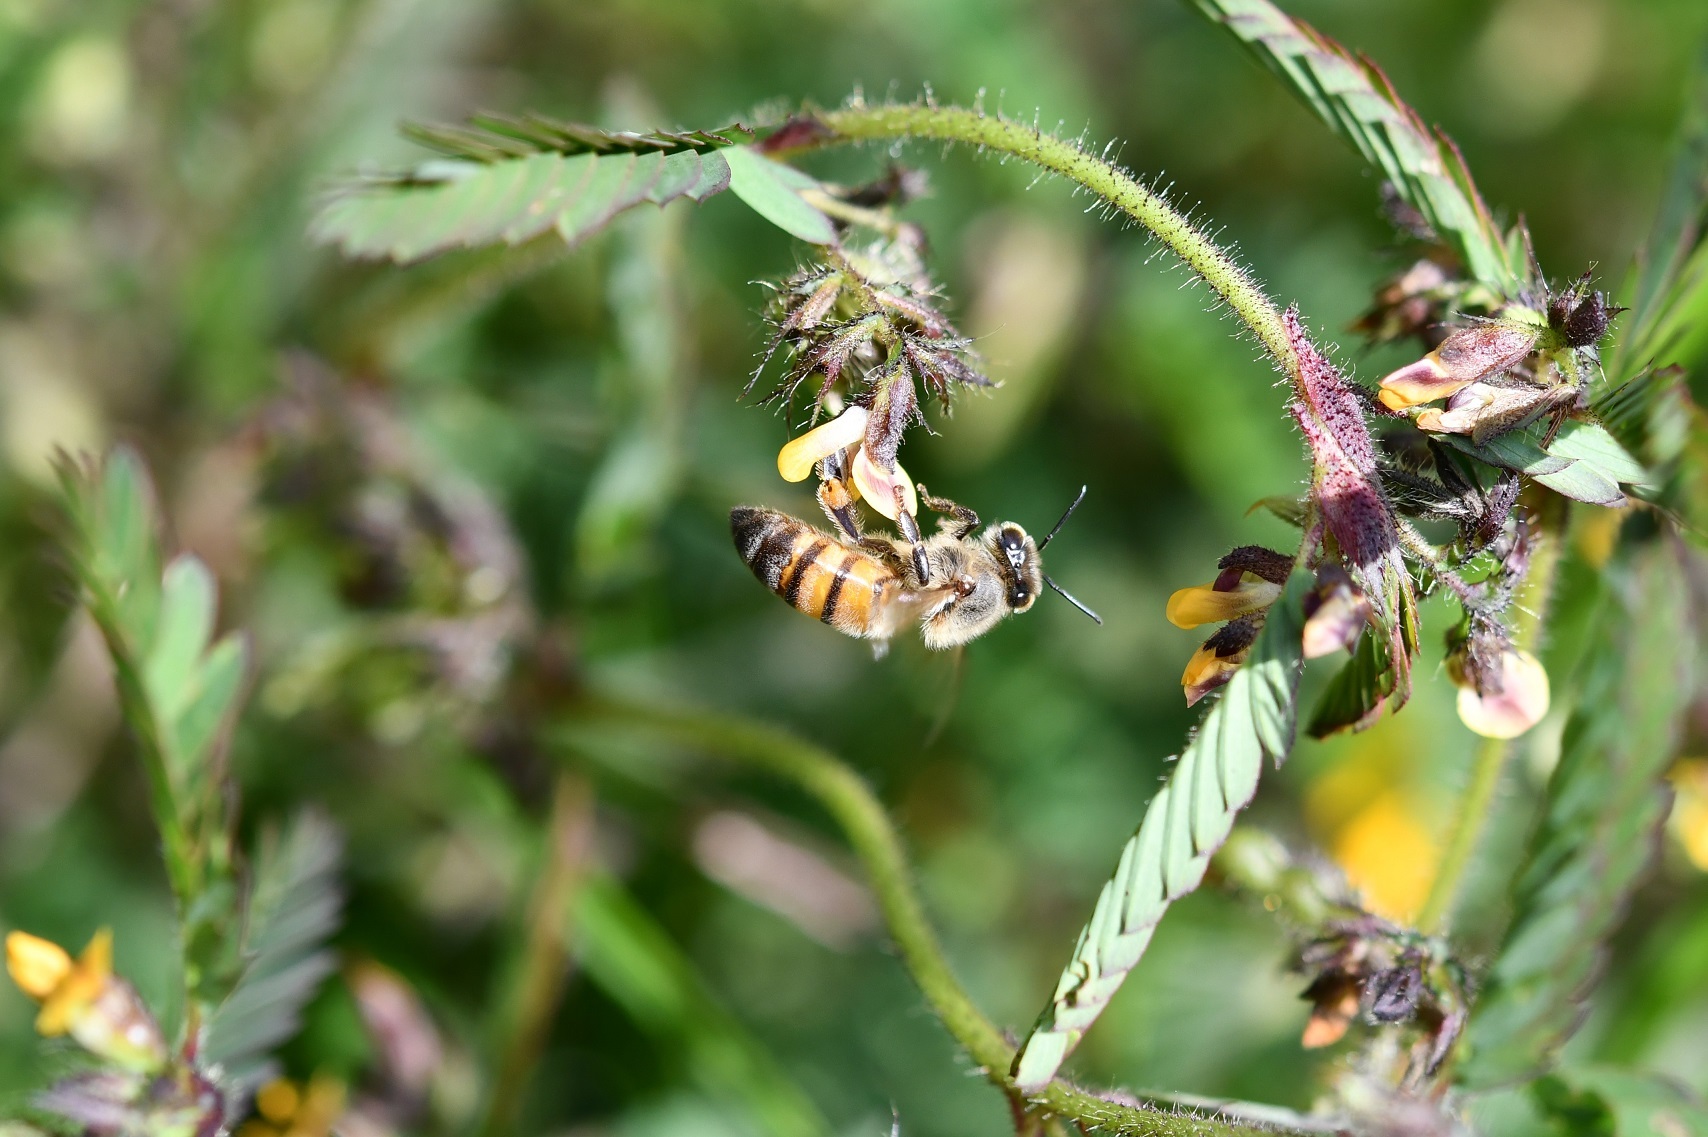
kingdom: Animalia
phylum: Arthropoda
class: Insecta
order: Hymenoptera
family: Apidae
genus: Apis
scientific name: Apis mellifera
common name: Honey bee
